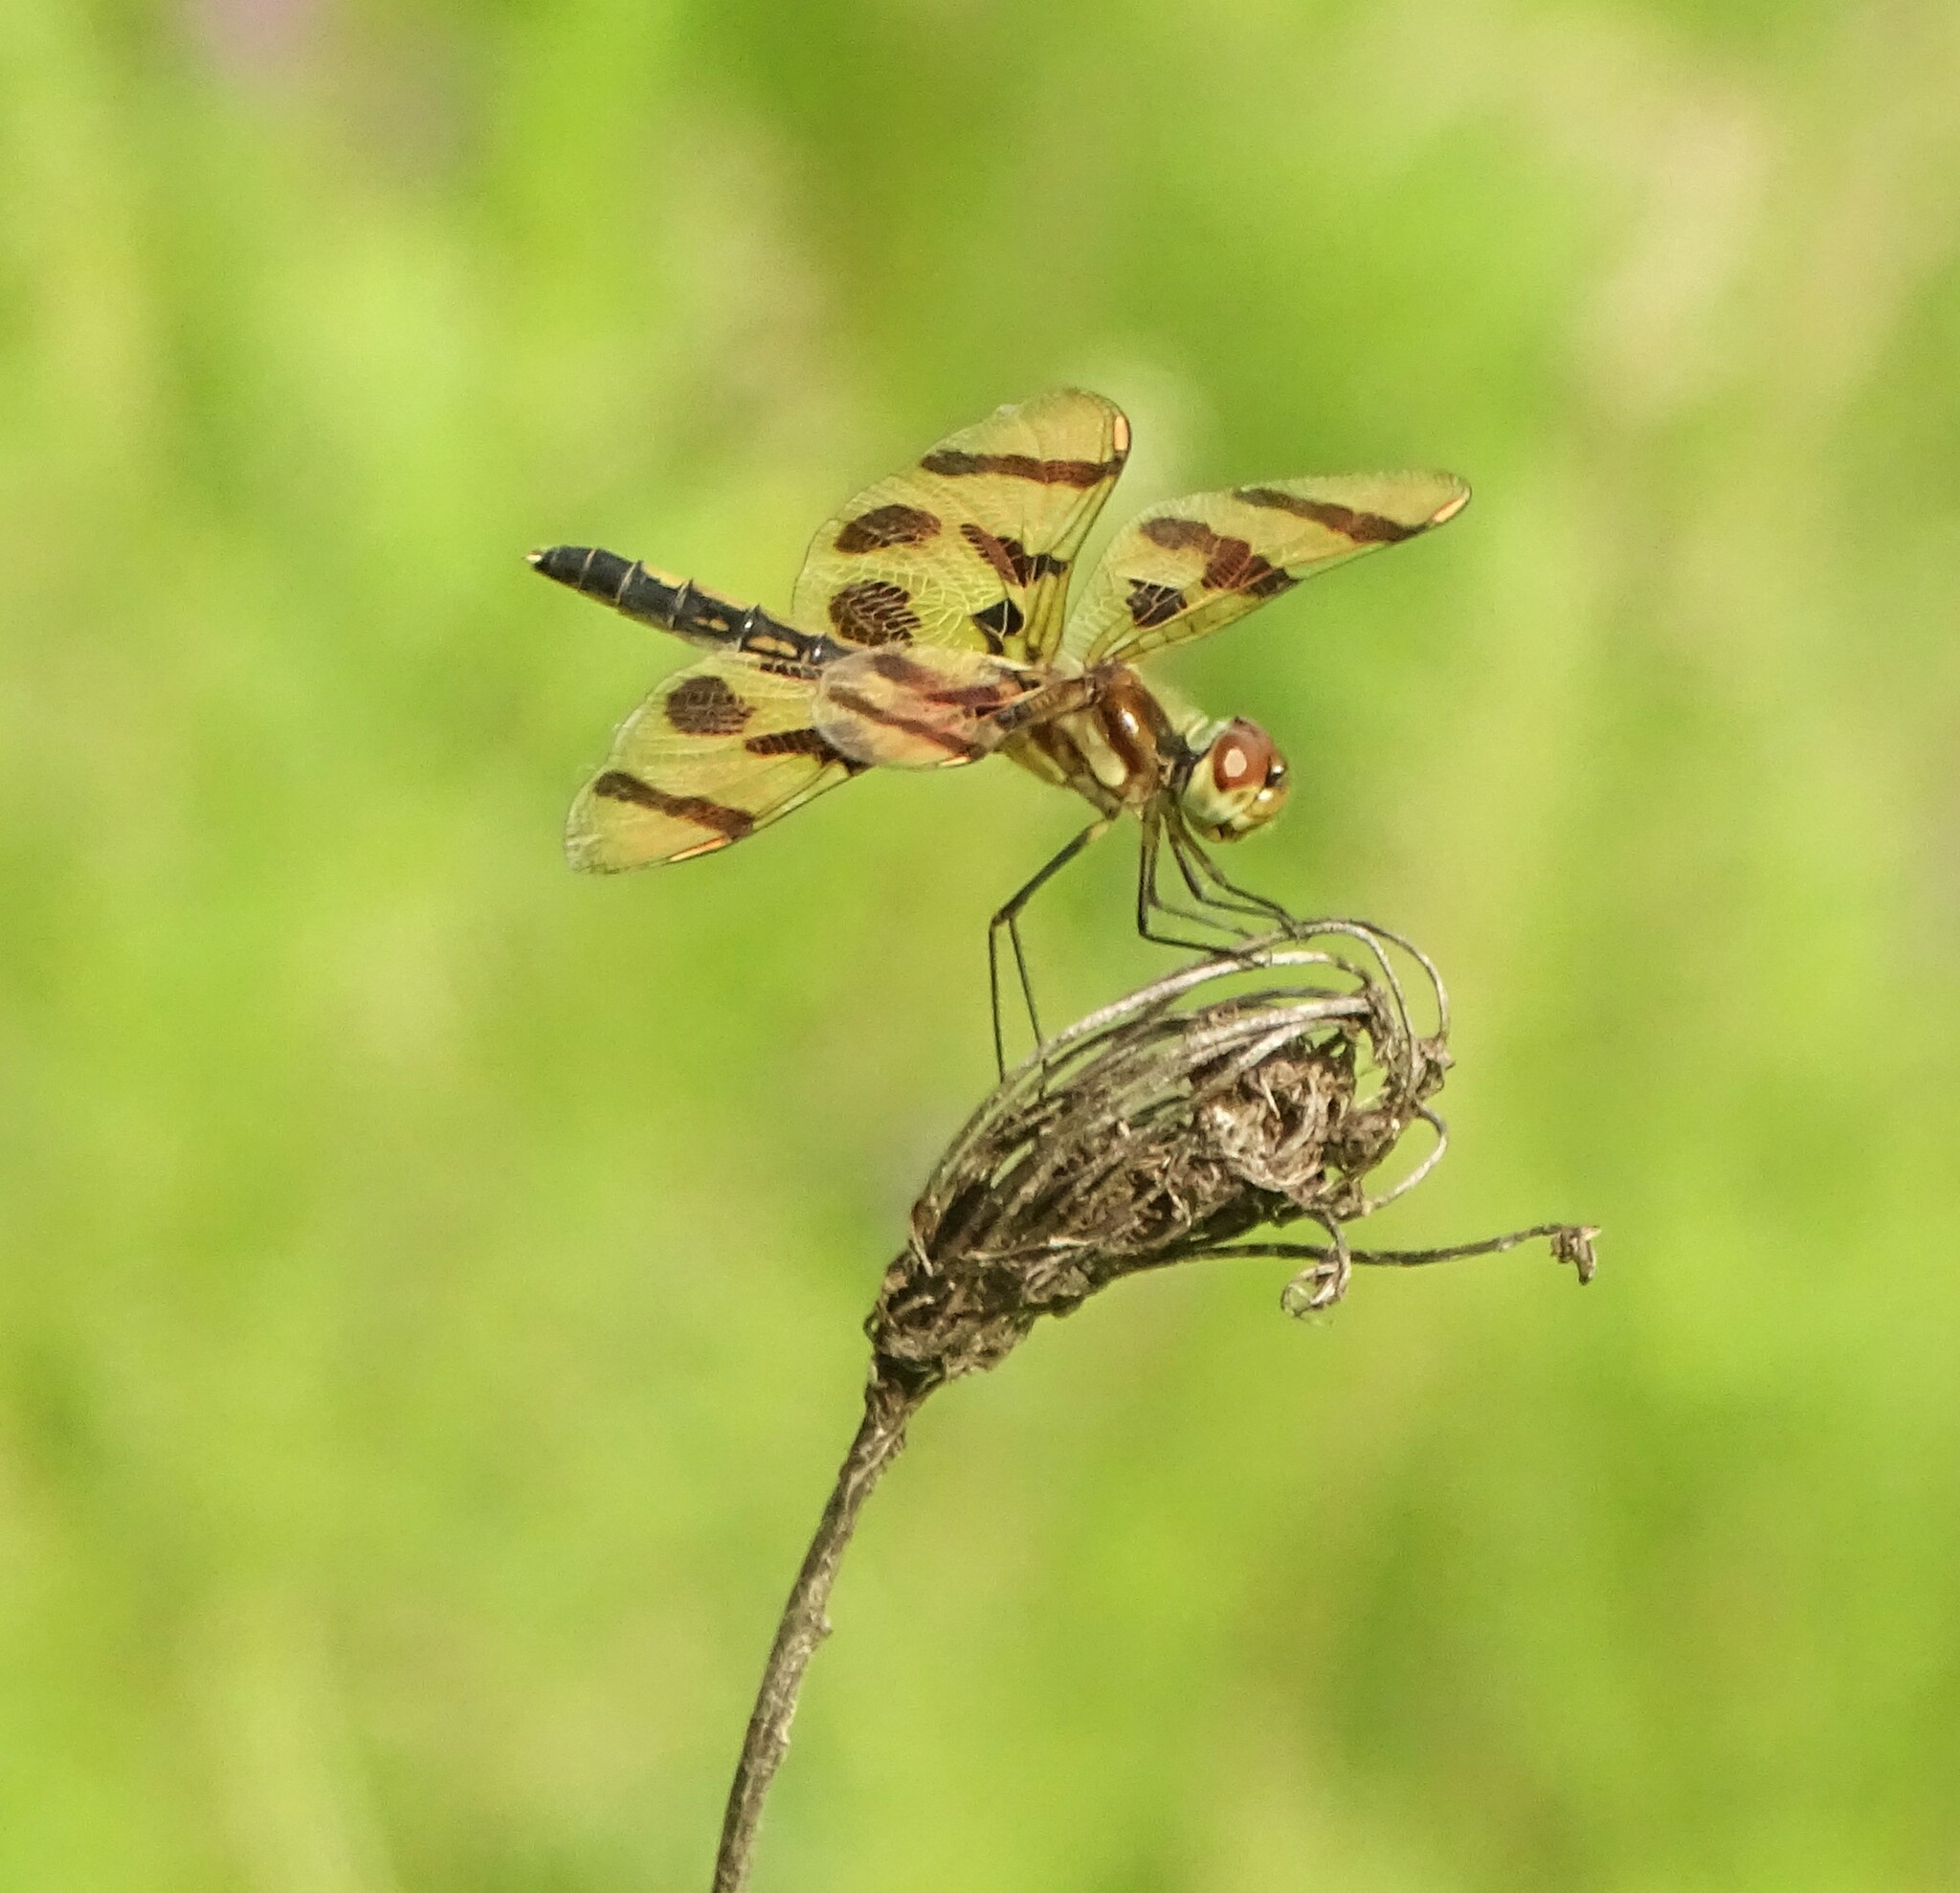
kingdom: Animalia
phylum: Arthropoda
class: Insecta
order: Odonata
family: Libellulidae
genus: Celithemis
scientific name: Celithemis eponina
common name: Halloween pennant
